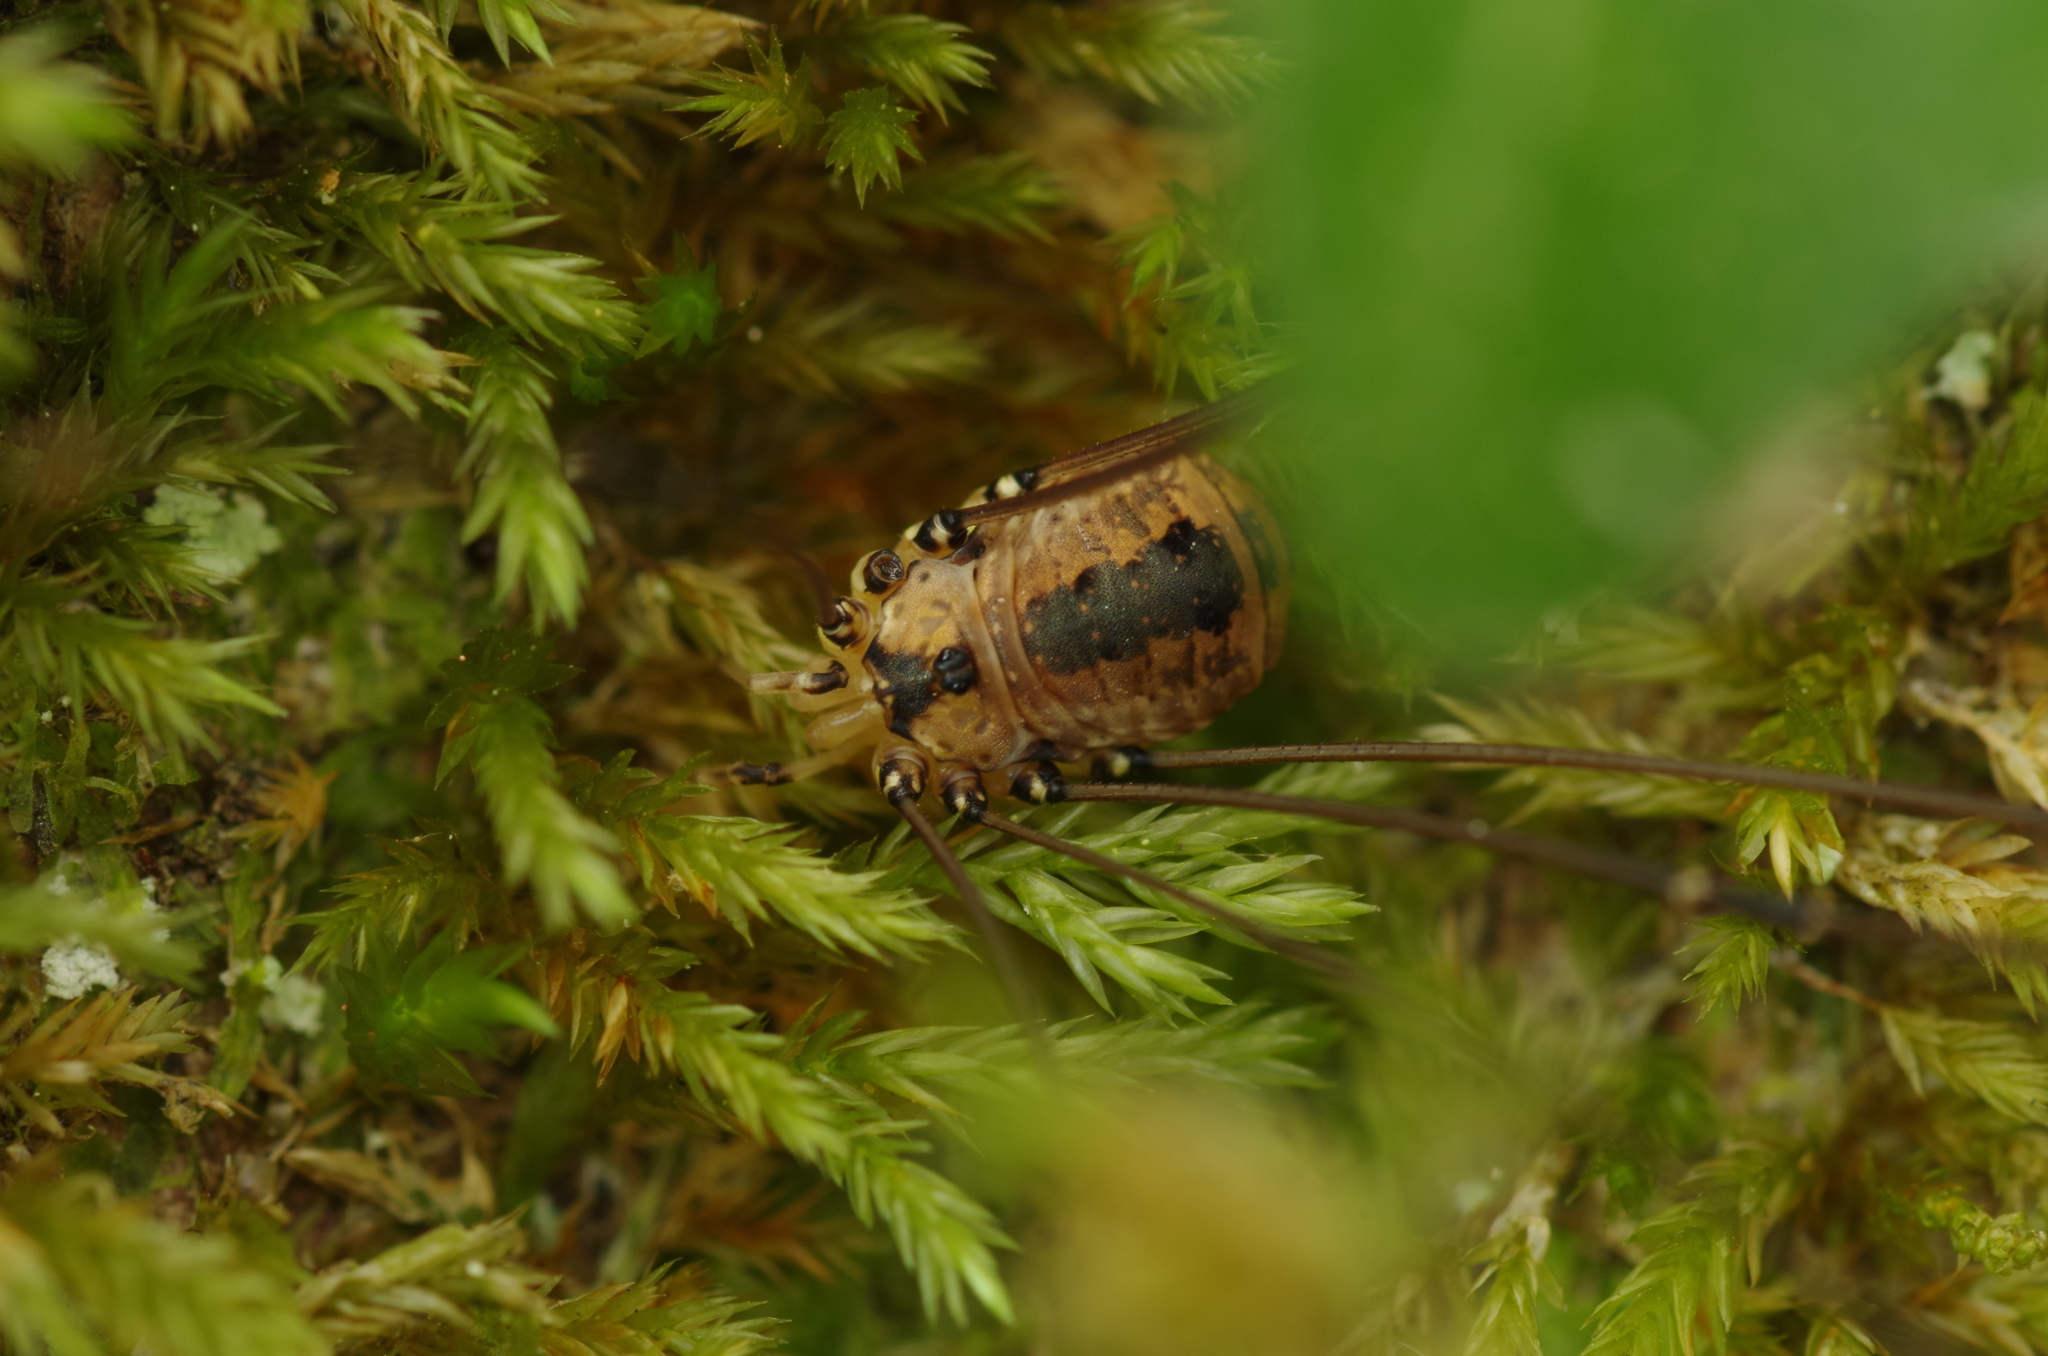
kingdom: Animalia
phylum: Arthropoda
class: Arachnida
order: Opiliones
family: Sclerosomatidae
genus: Leiobunum
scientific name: Leiobunum rotundum
